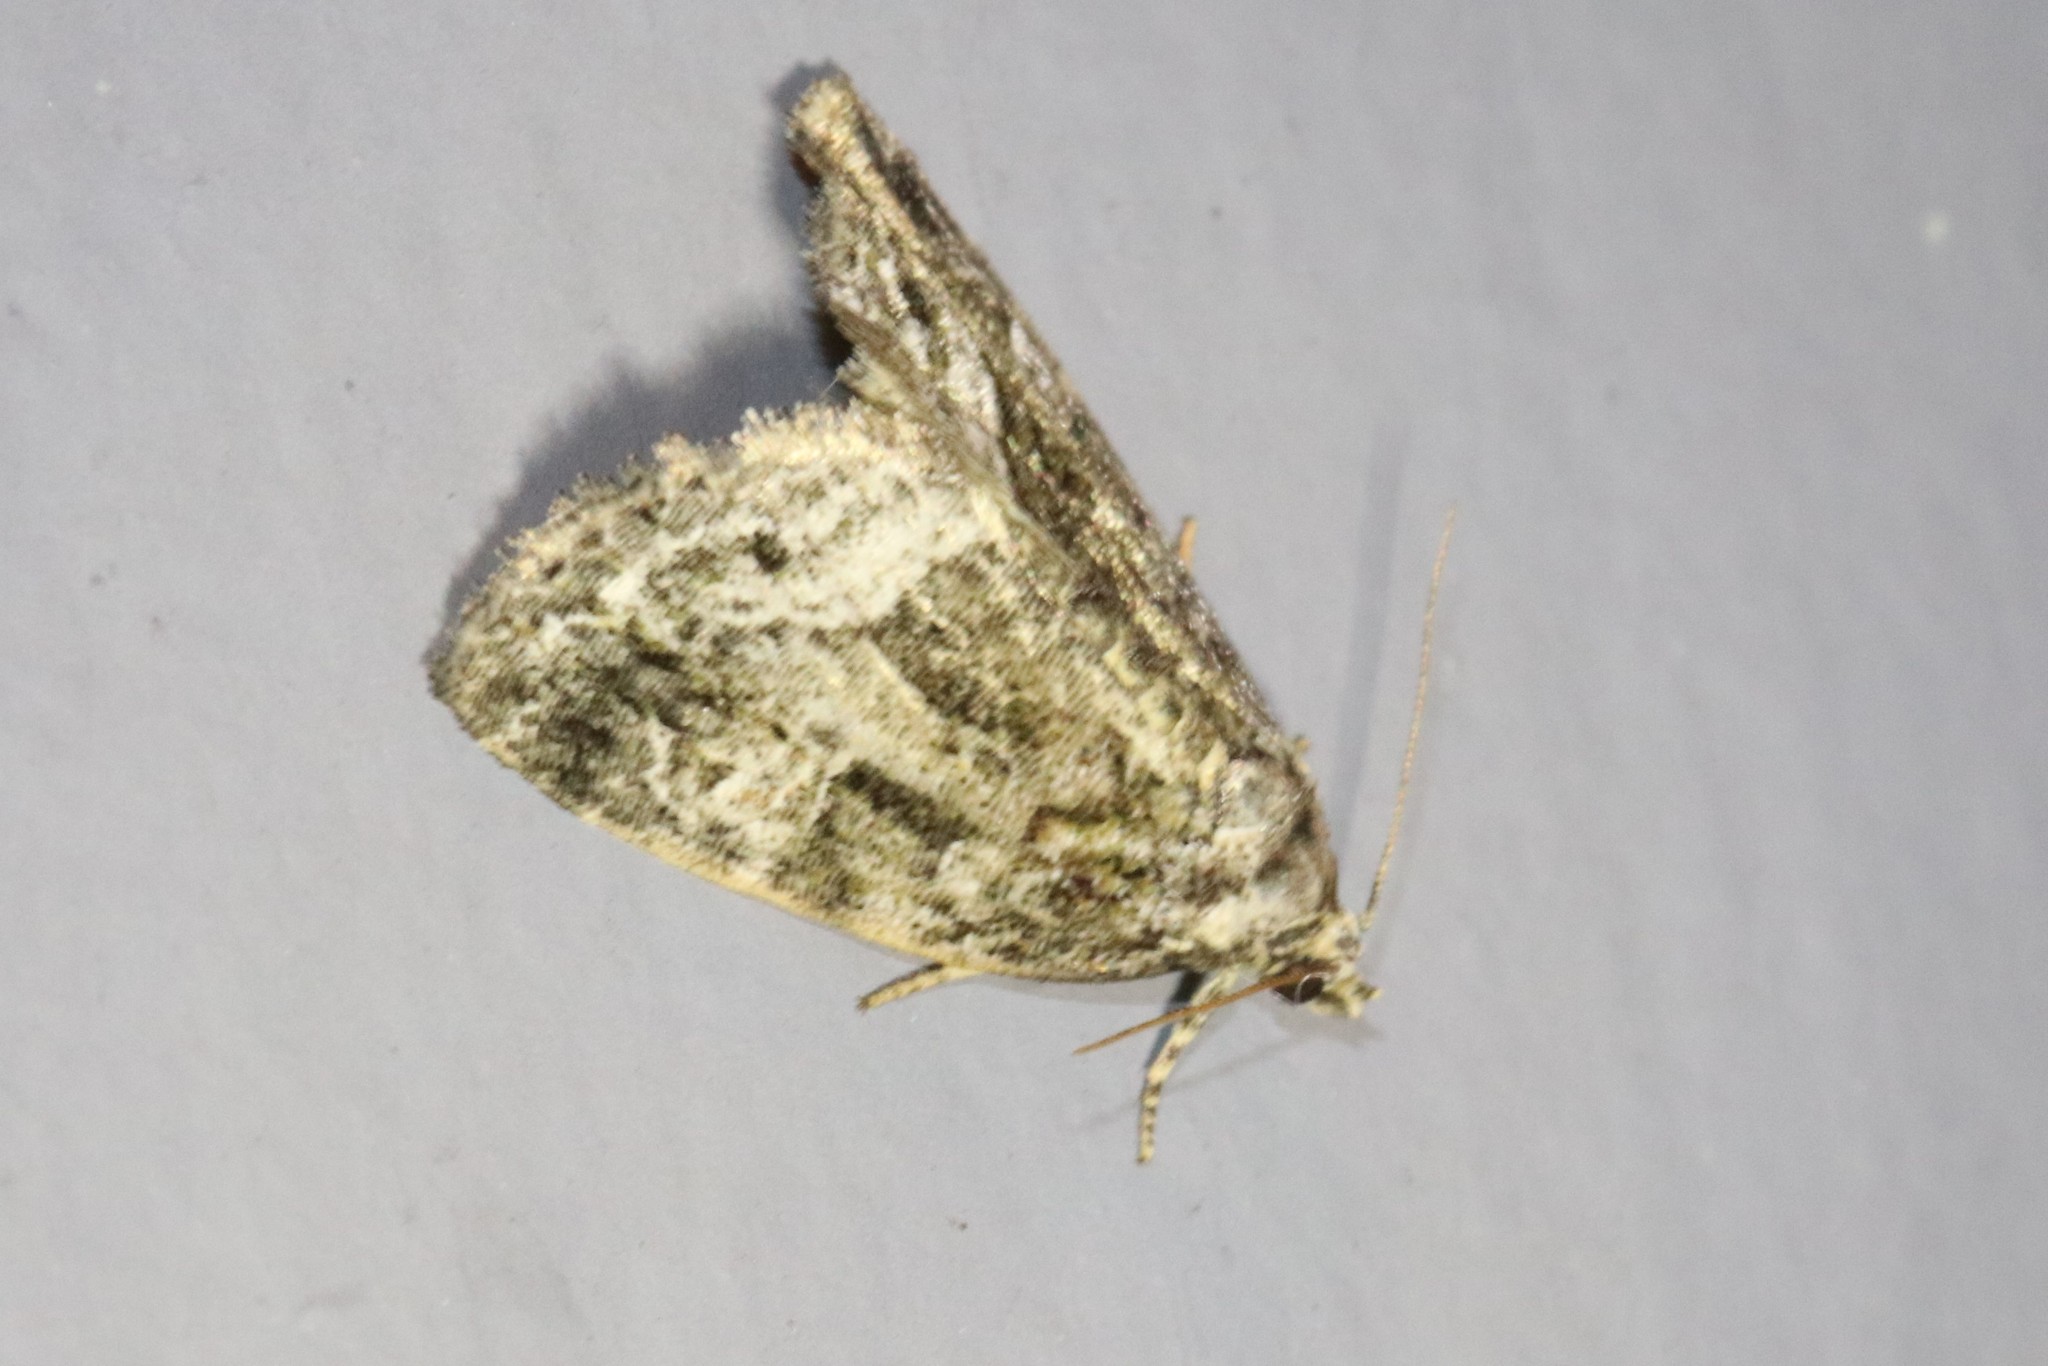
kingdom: Animalia
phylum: Arthropoda
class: Insecta
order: Lepidoptera
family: Noctuidae
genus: Protodeltote
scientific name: Protodeltote muscosula
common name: Large mossy glyph
